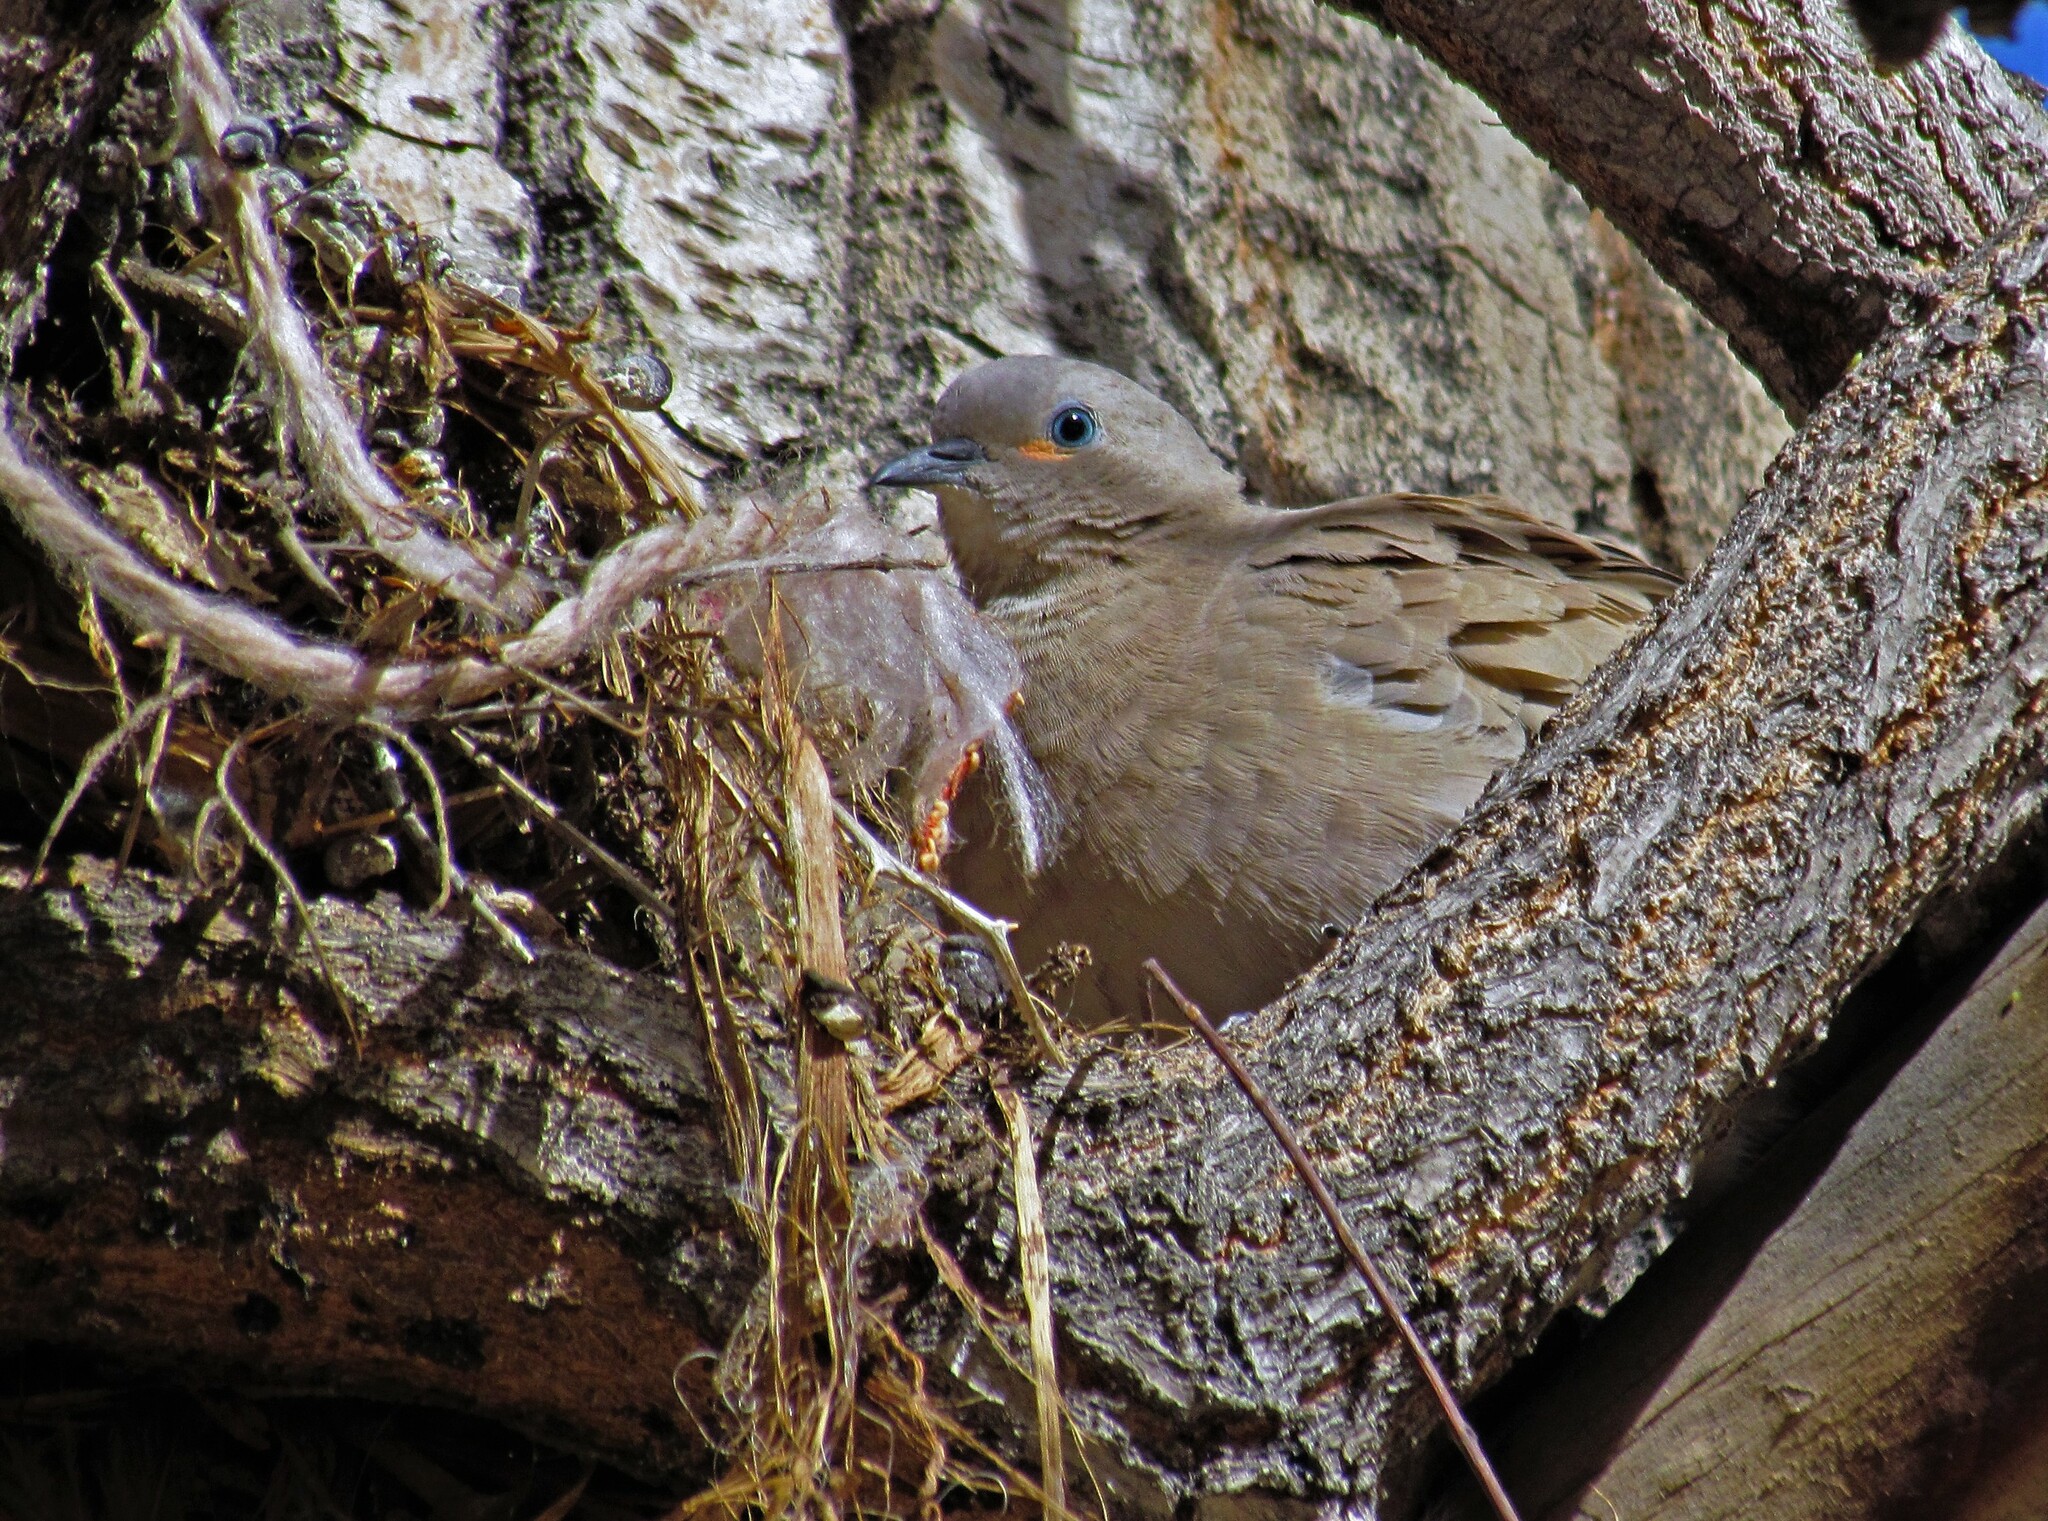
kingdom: Animalia
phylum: Chordata
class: Aves
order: Columbiformes
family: Columbidae
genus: Metriopelia
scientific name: Metriopelia melanoptera
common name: Black-winged ground dove
